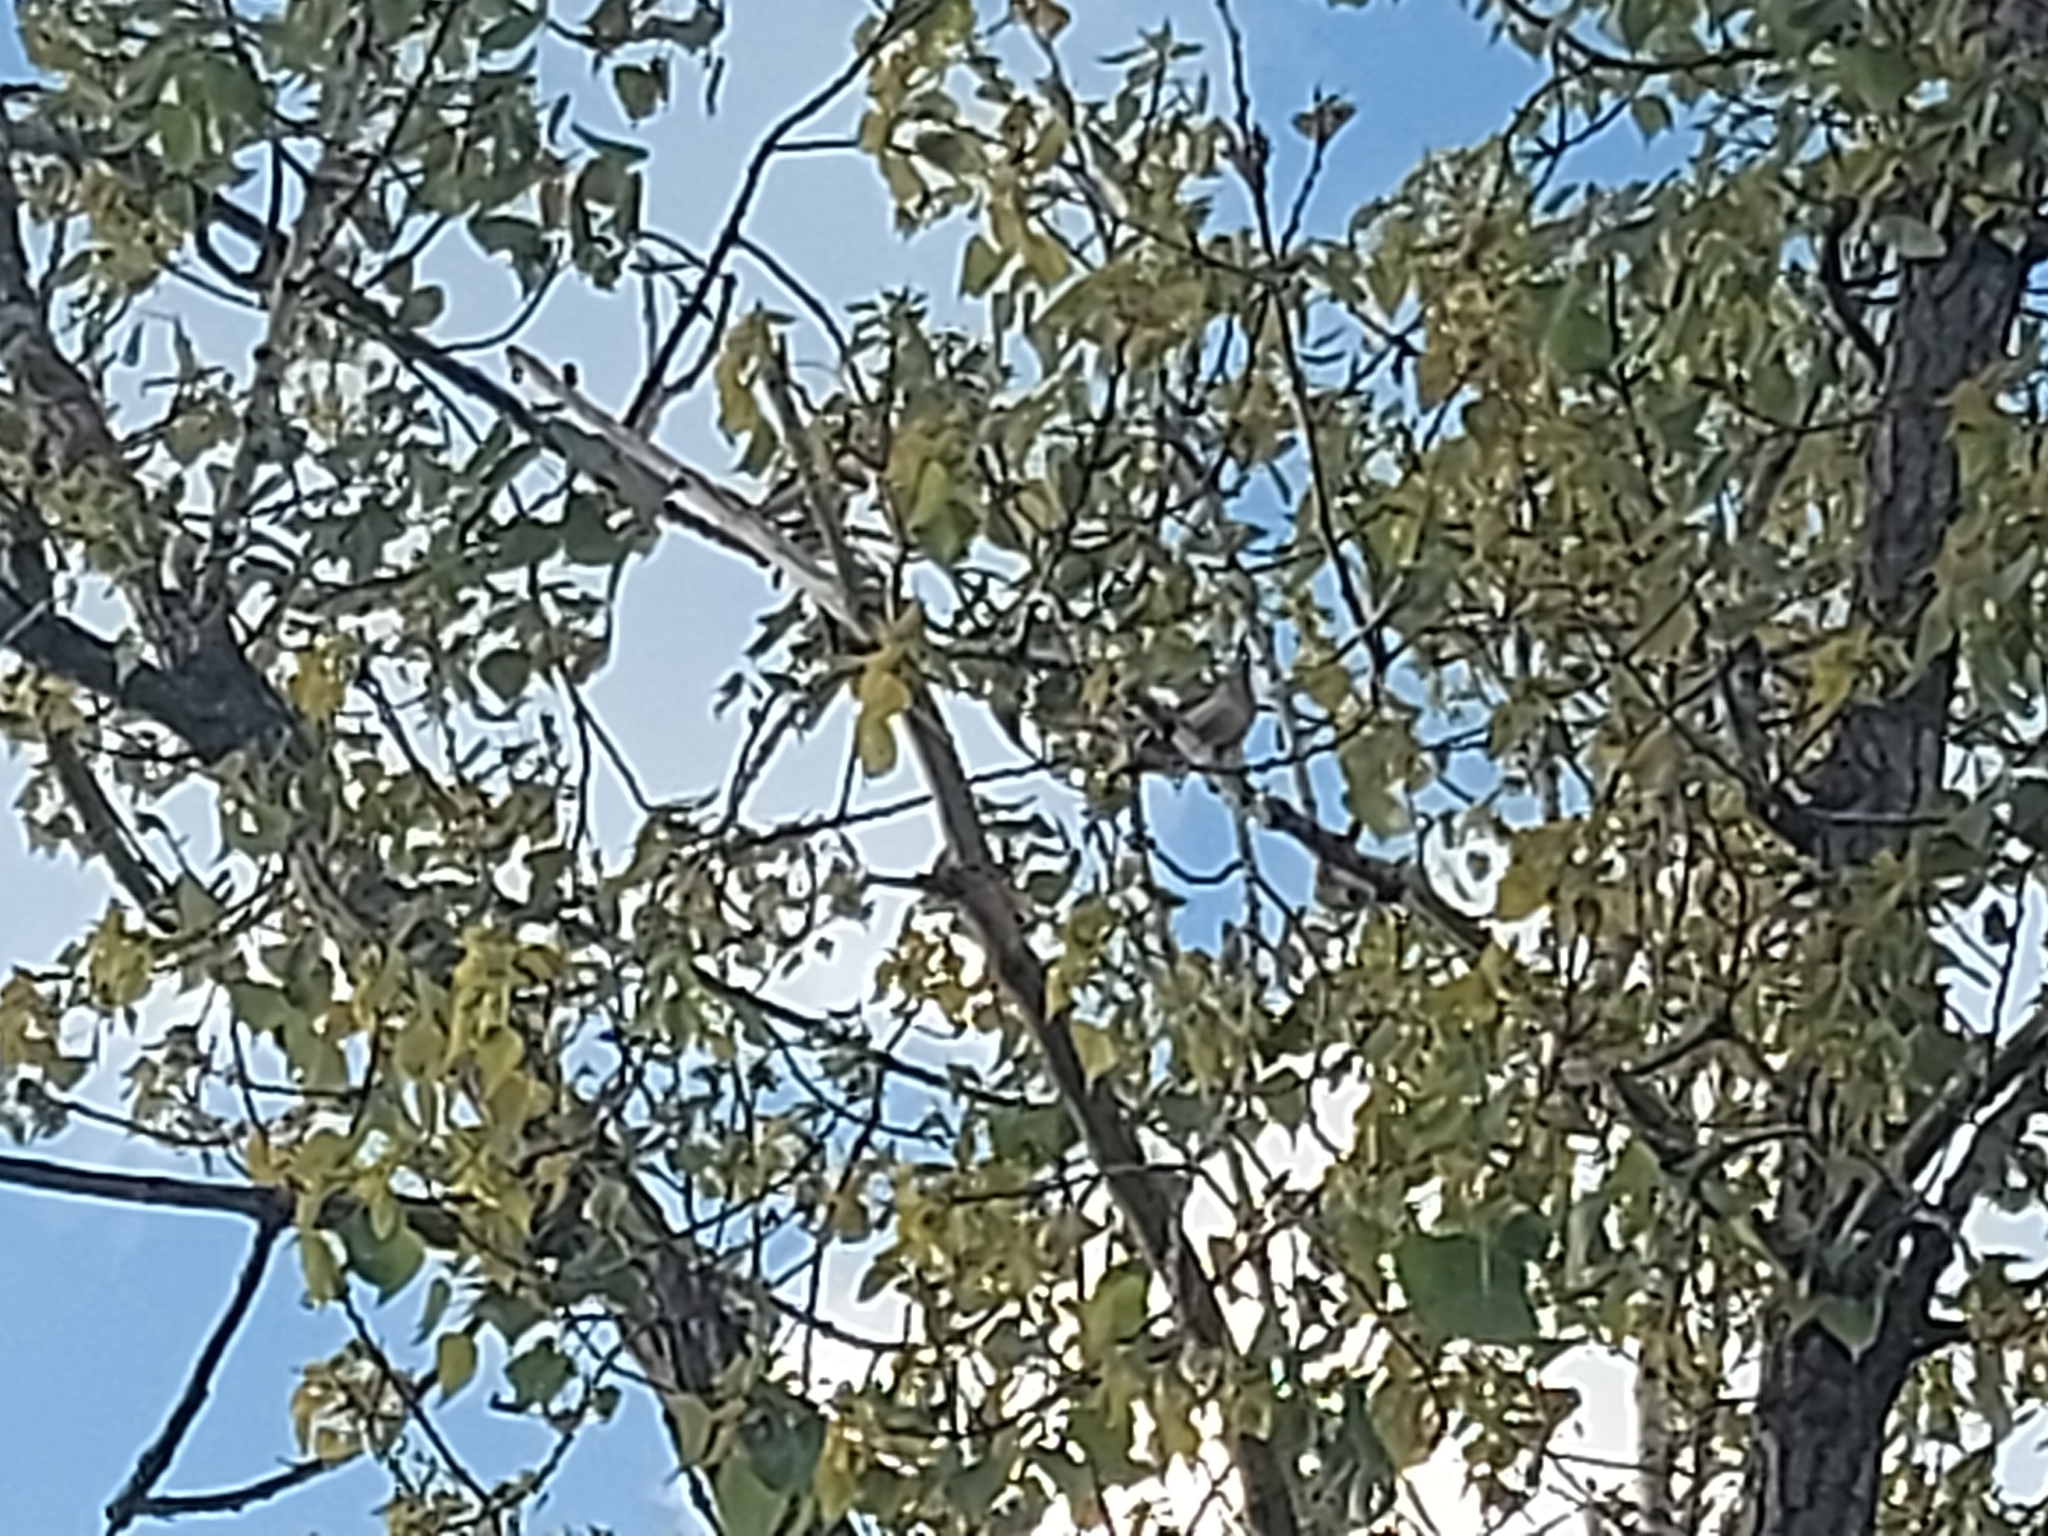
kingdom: Animalia
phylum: Chordata
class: Aves
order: Passeriformes
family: Locustellidae
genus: Megalurus
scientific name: Megalurus mathewsi
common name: Rufous songlark
